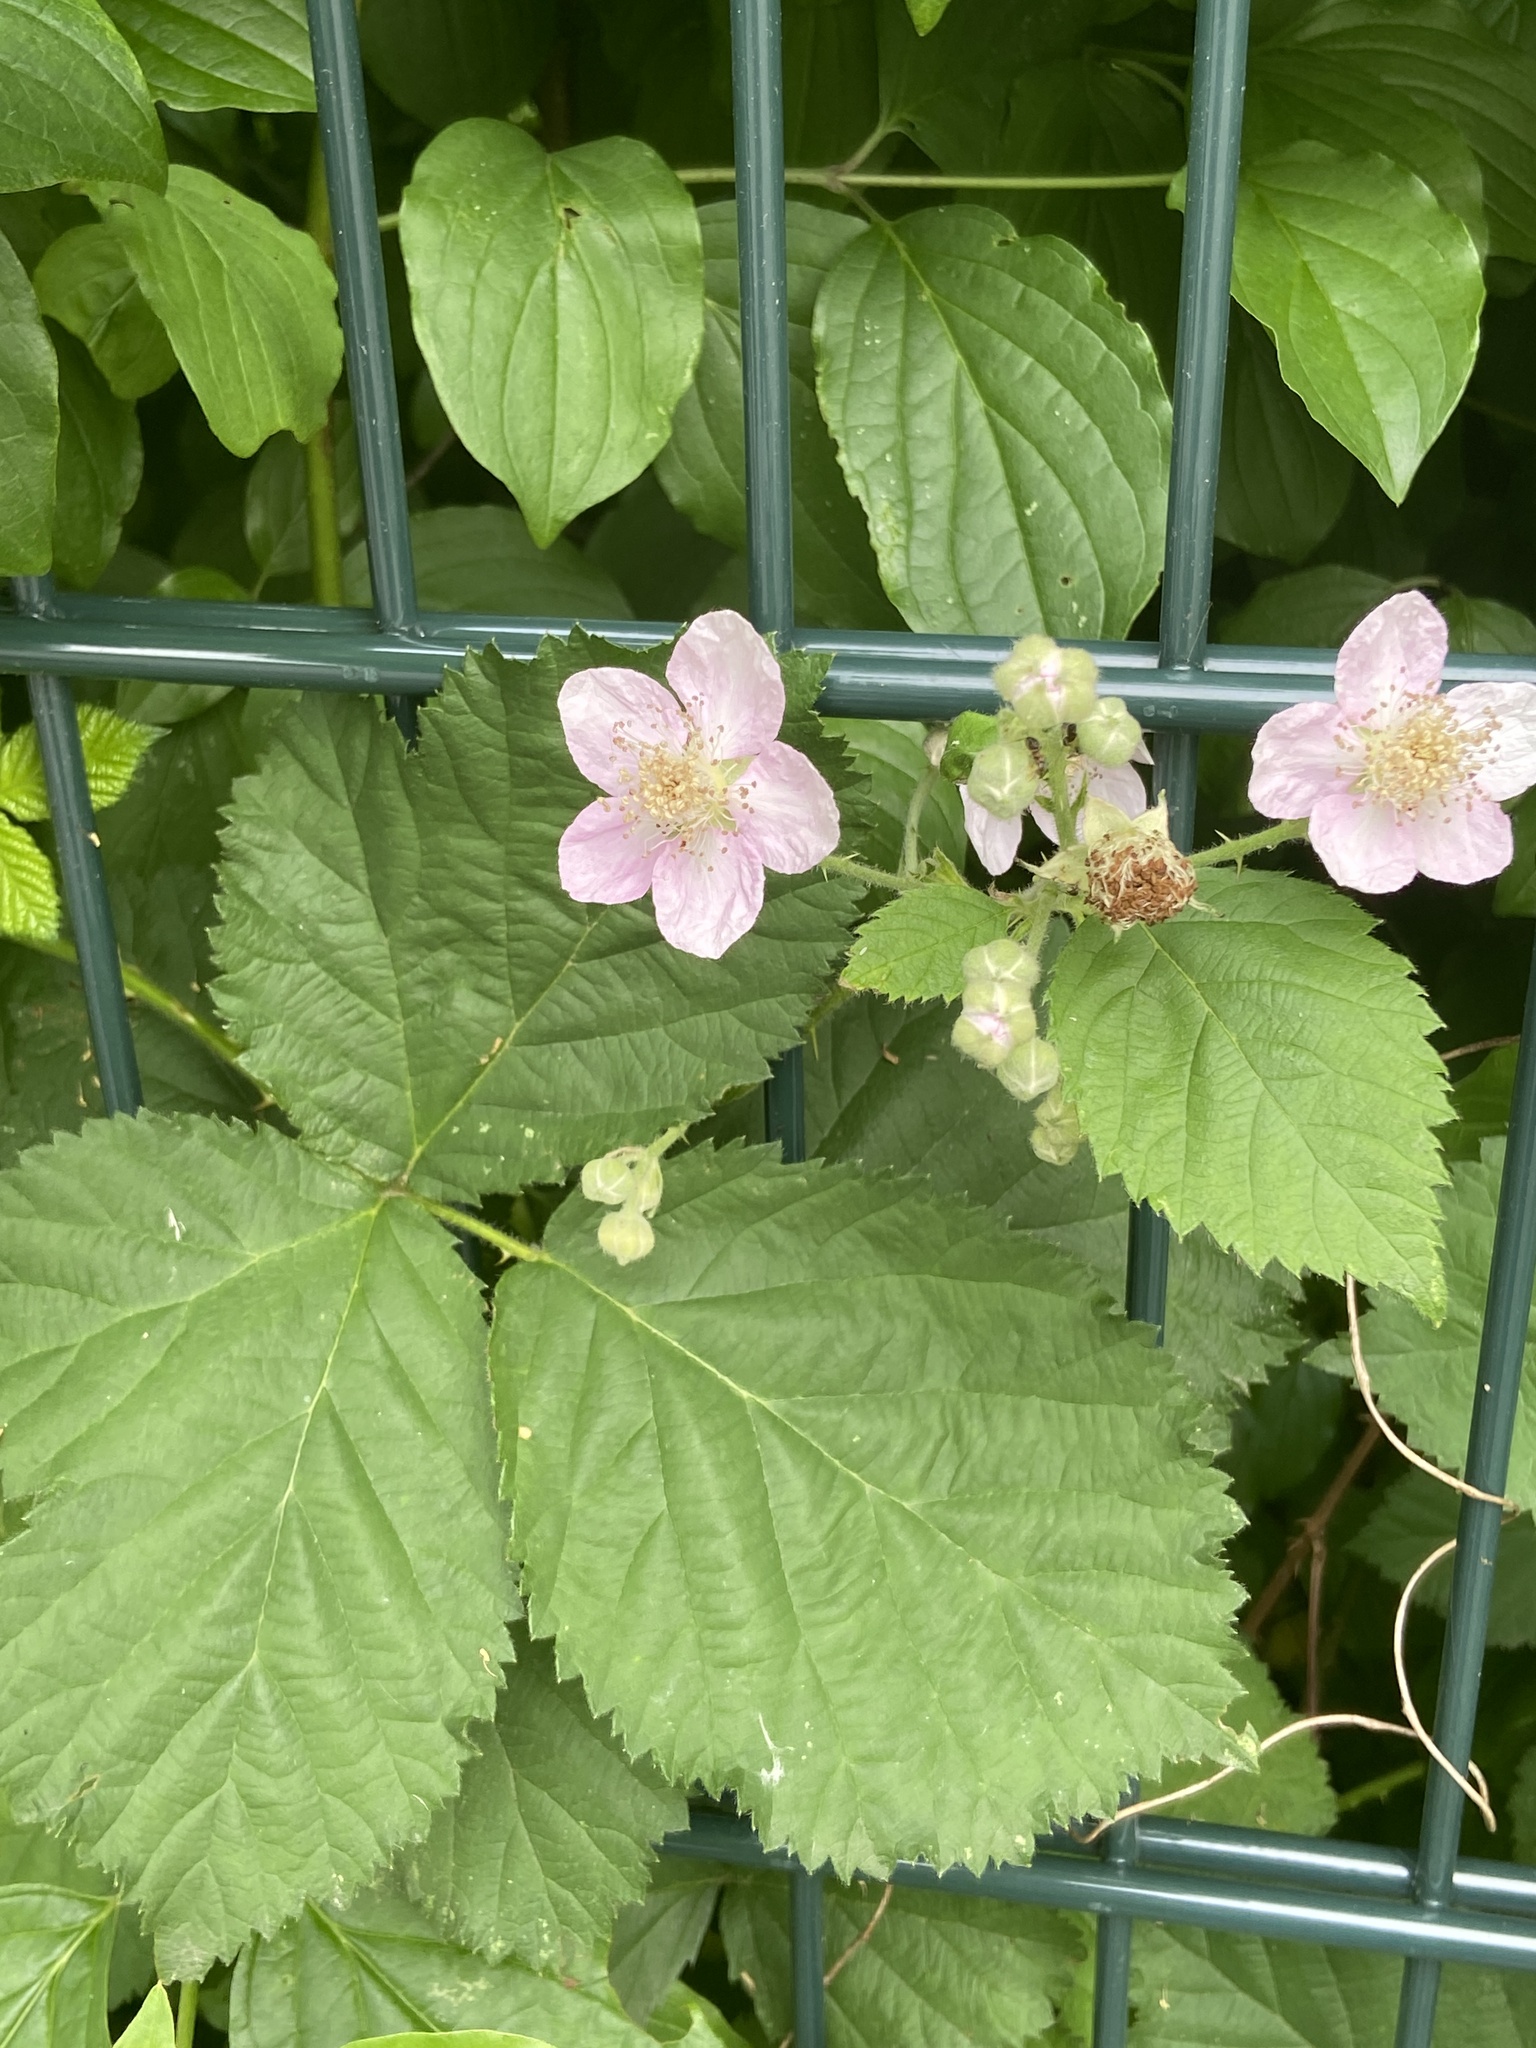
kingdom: Plantae
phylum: Tracheophyta
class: Magnoliopsida
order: Rosales
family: Rosaceae
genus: Rubus
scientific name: Rubus armeniacus
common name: Himalayan blackberry
